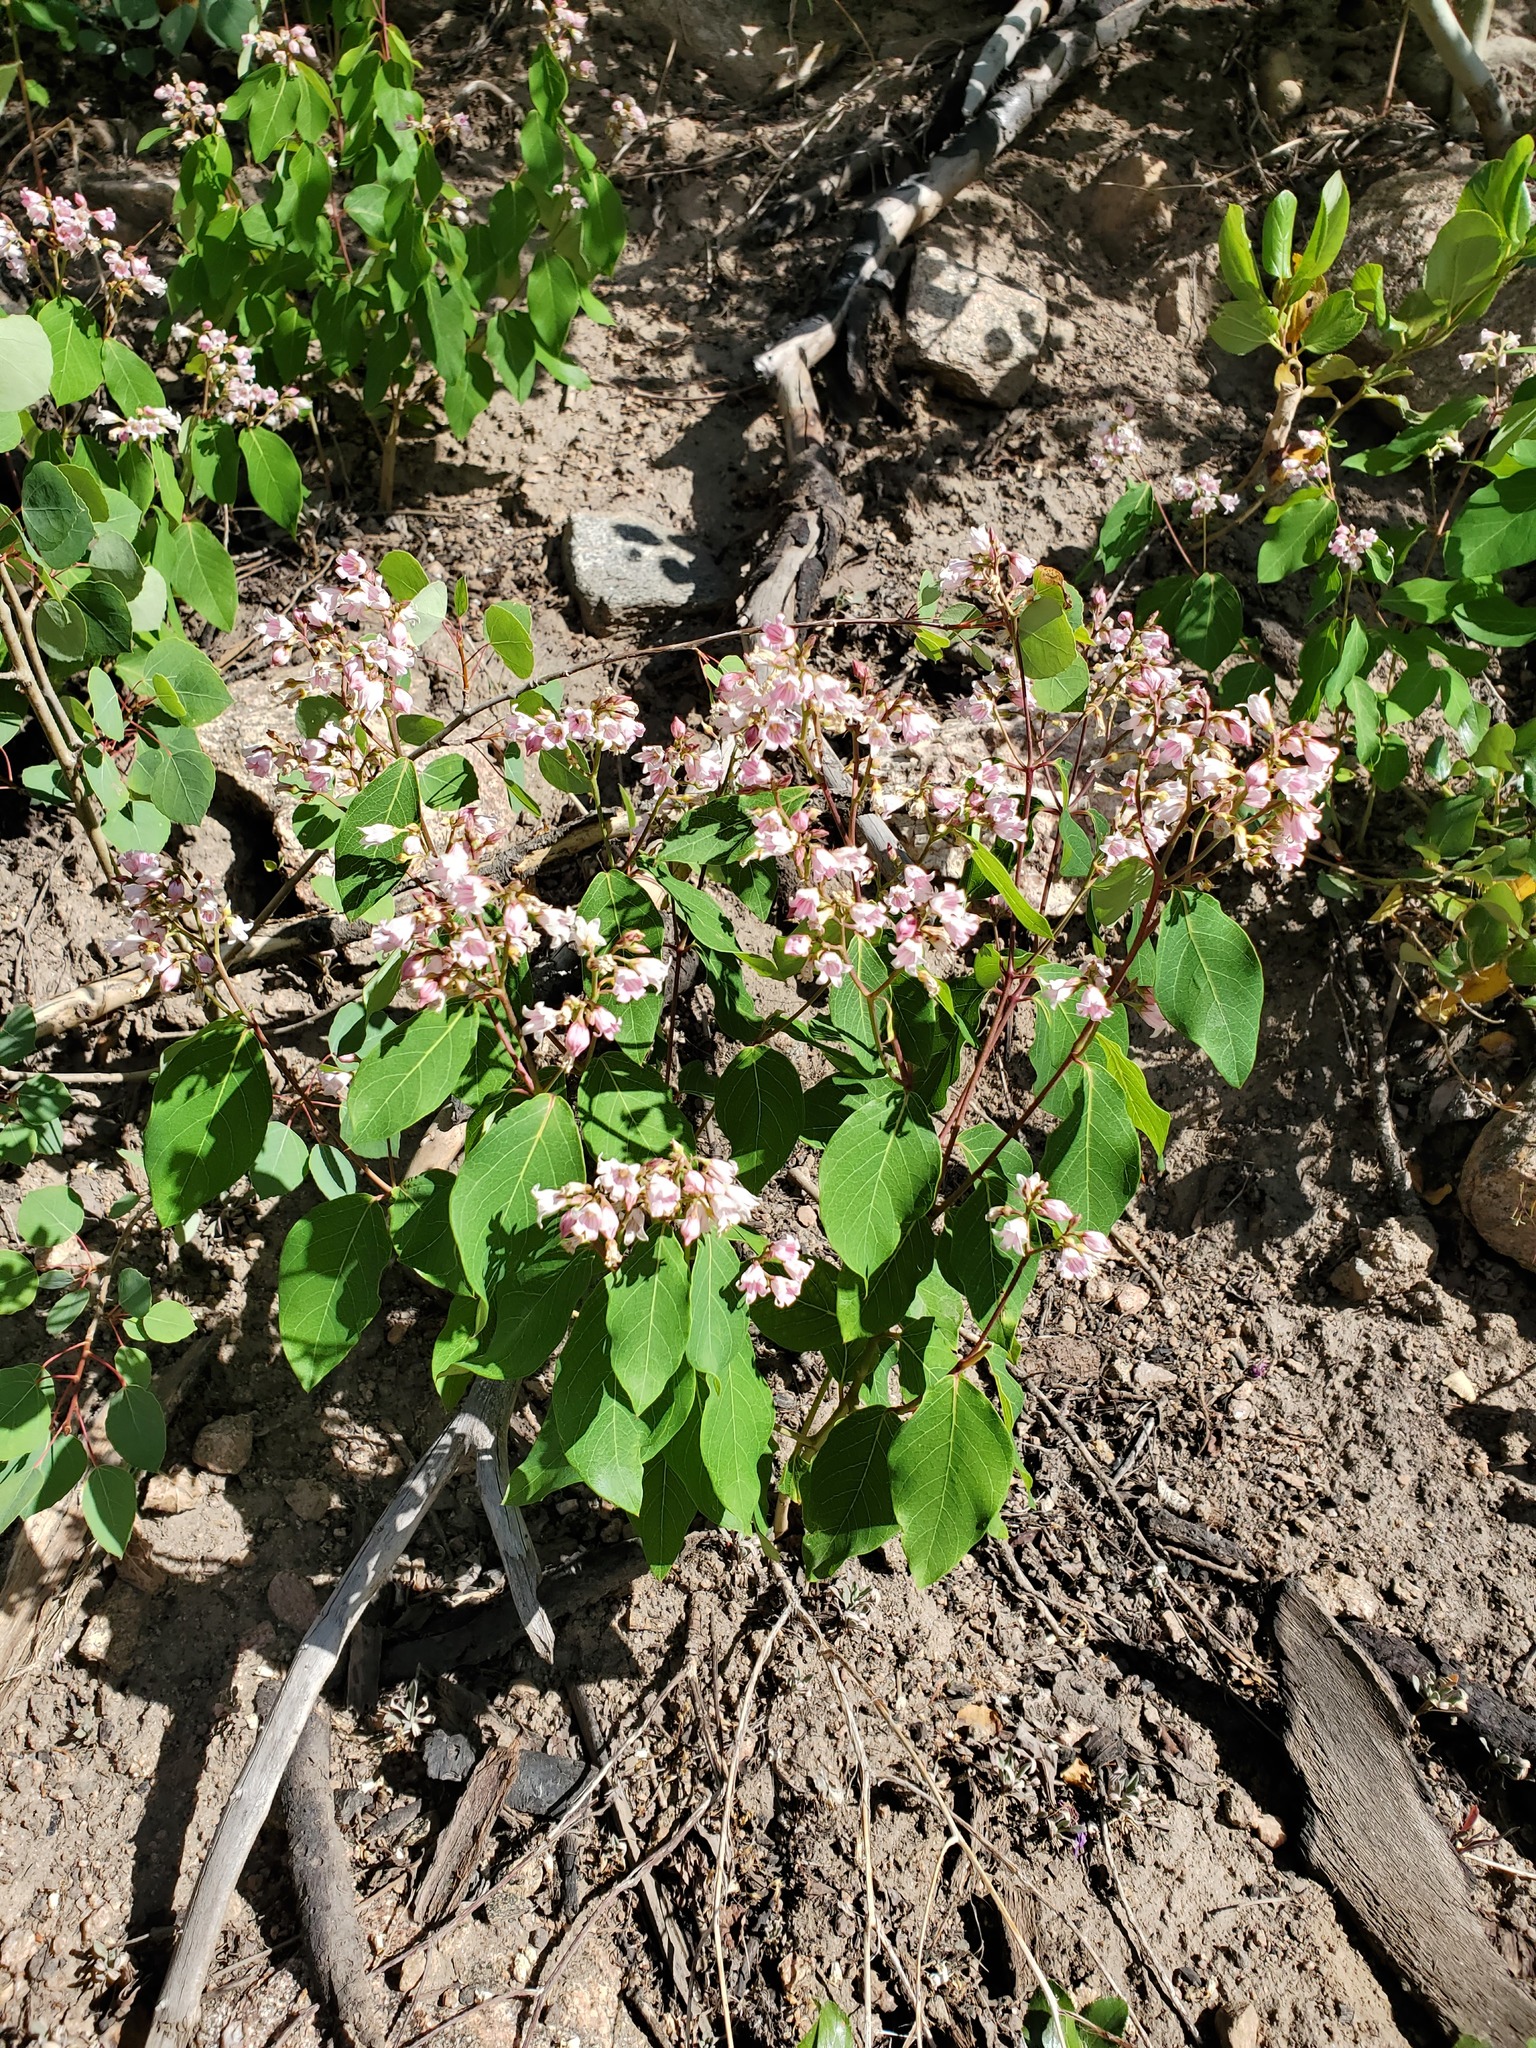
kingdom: Plantae
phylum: Tracheophyta
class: Magnoliopsida
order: Gentianales
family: Apocynaceae
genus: Apocynum
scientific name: Apocynum androsaemifolium
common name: Spreading dogbane
